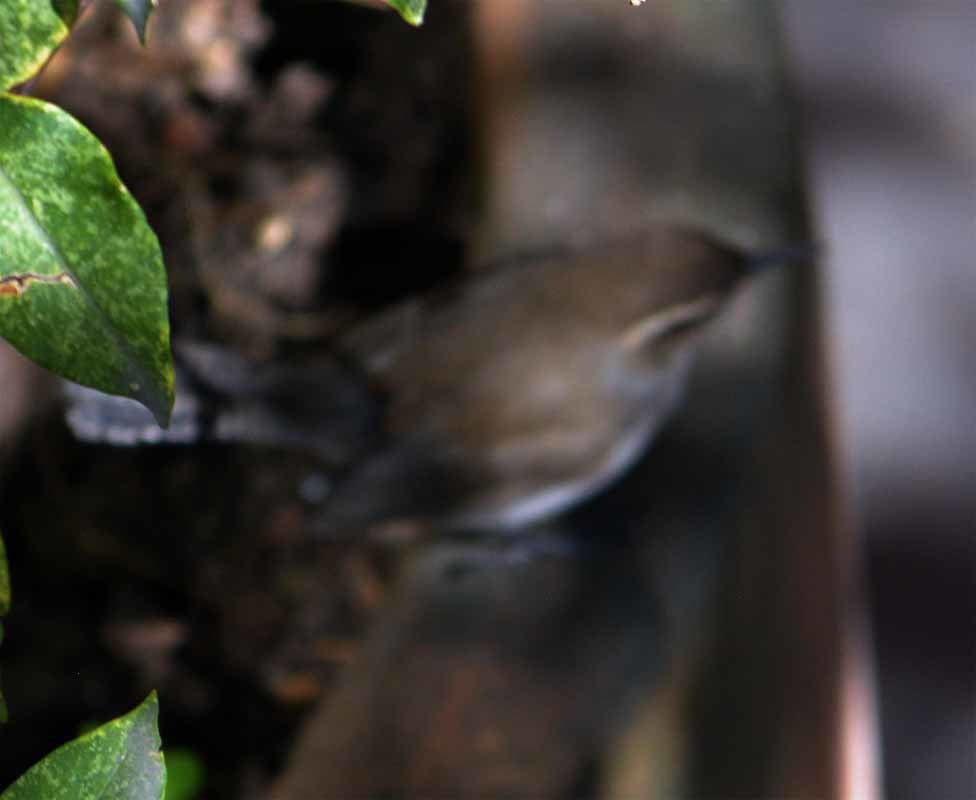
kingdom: Animalia
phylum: Chordata
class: Aves
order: Passeriformes
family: Troglodytidae
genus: Thryomanes
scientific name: Thryomanes bewickii
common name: Bewick's wren
